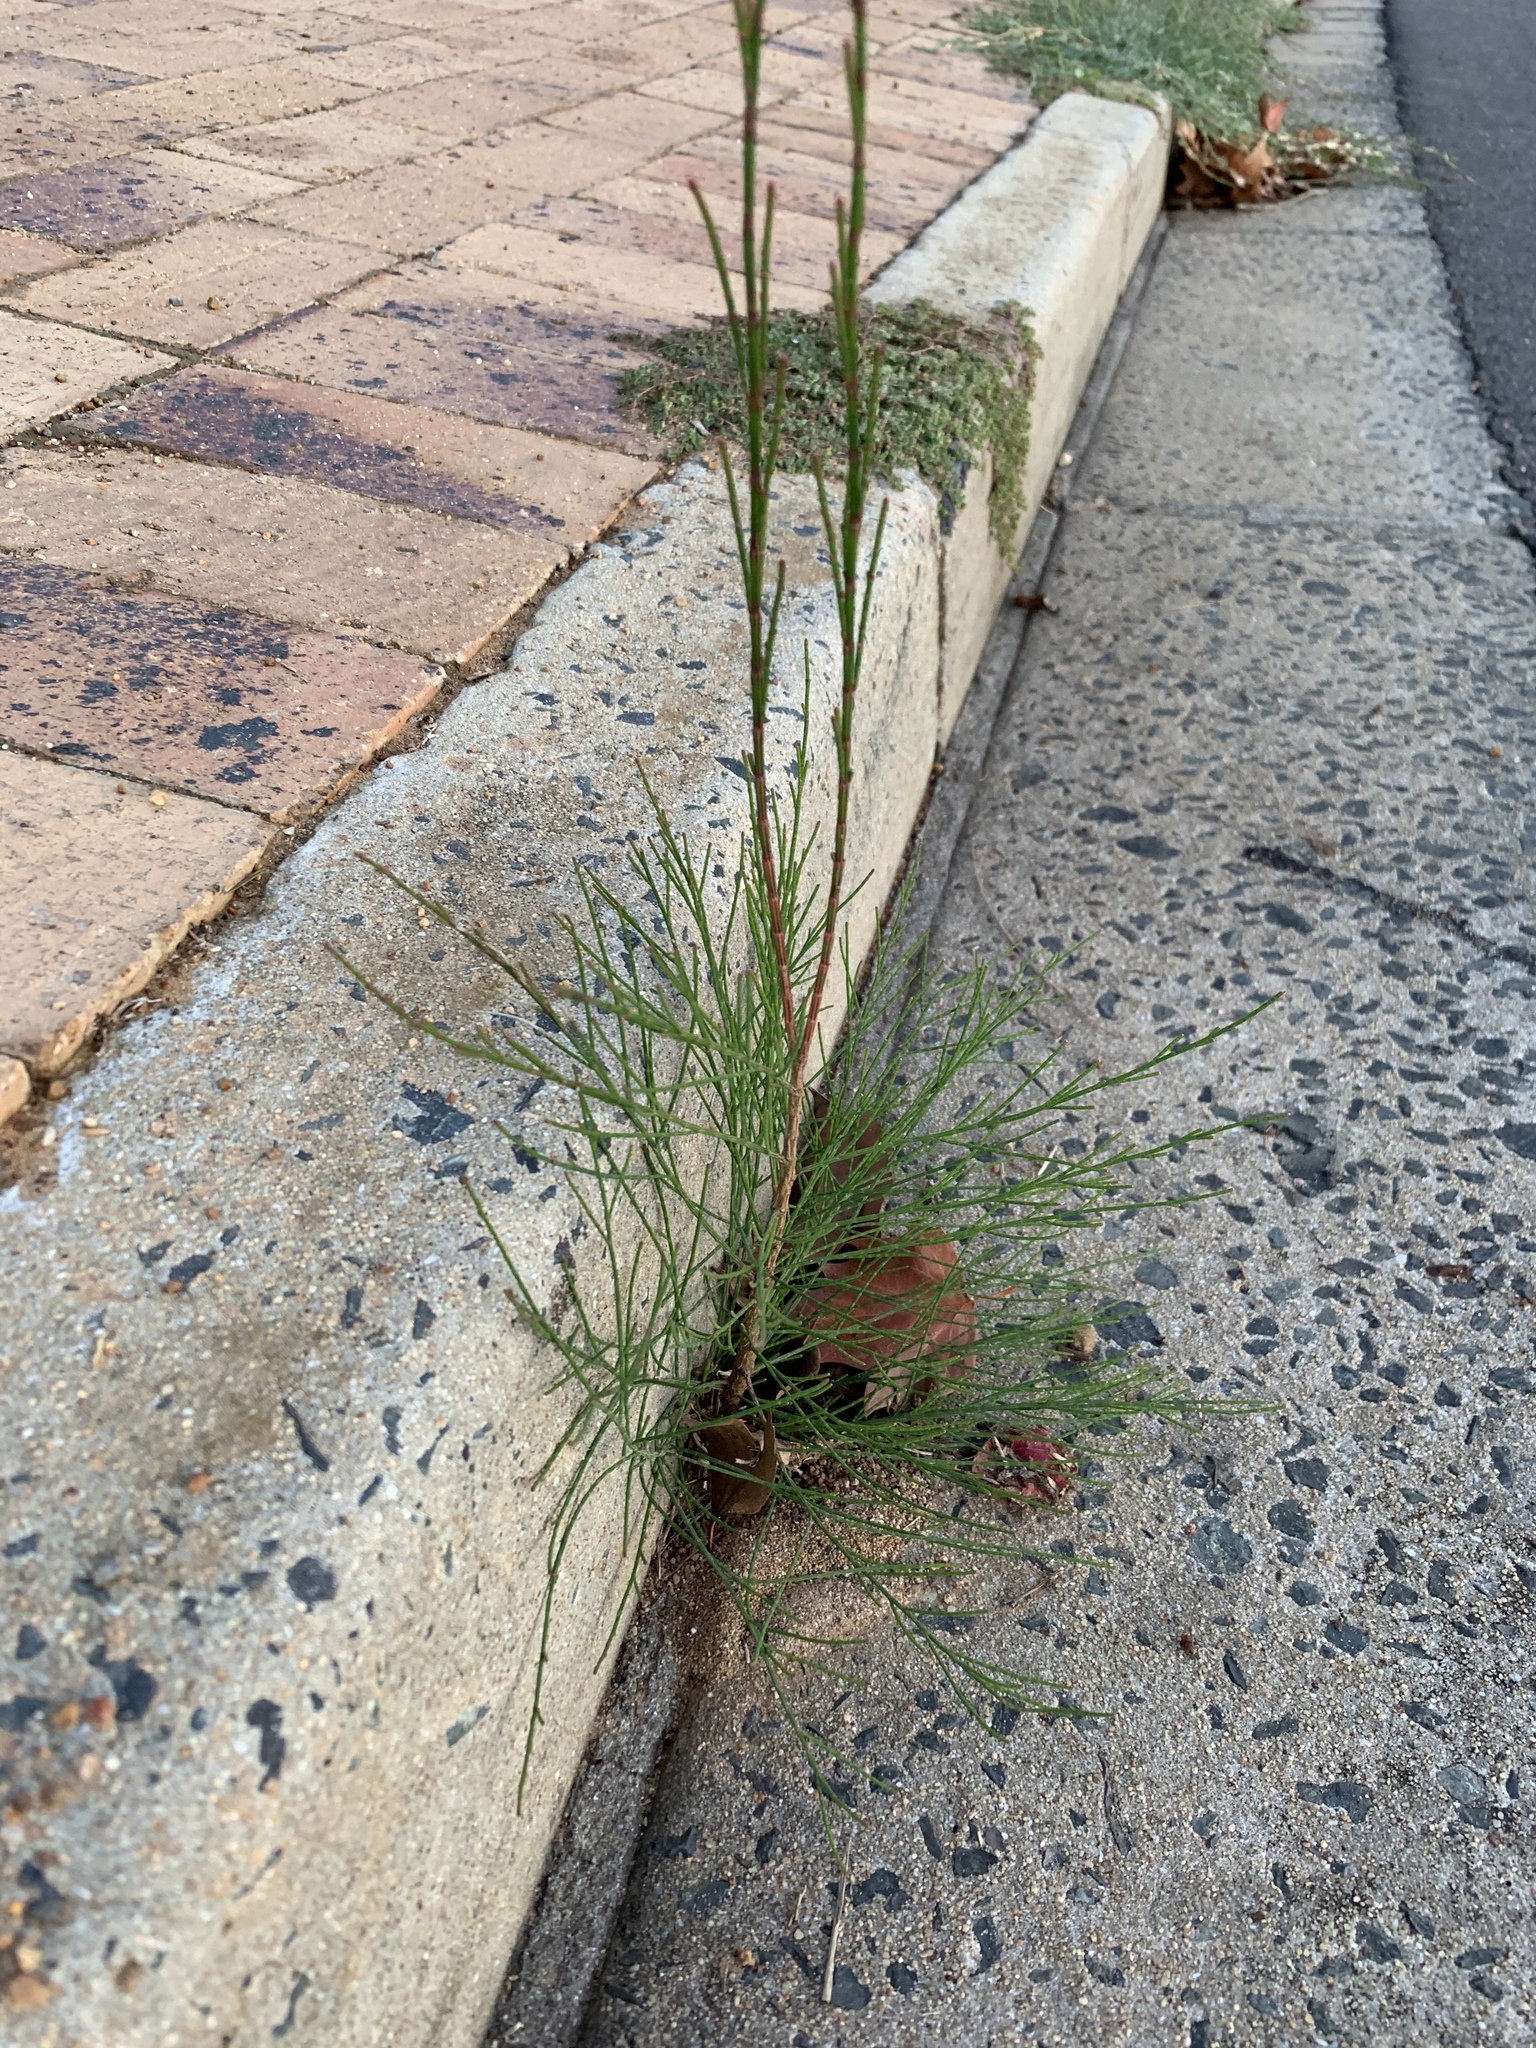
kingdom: Plantae
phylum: Tracheophyta
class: Magnoliopsida
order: Fagales
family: Casuarinaceae
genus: Casuarina
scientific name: Casuarina cunninghamiana
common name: River sheoak
